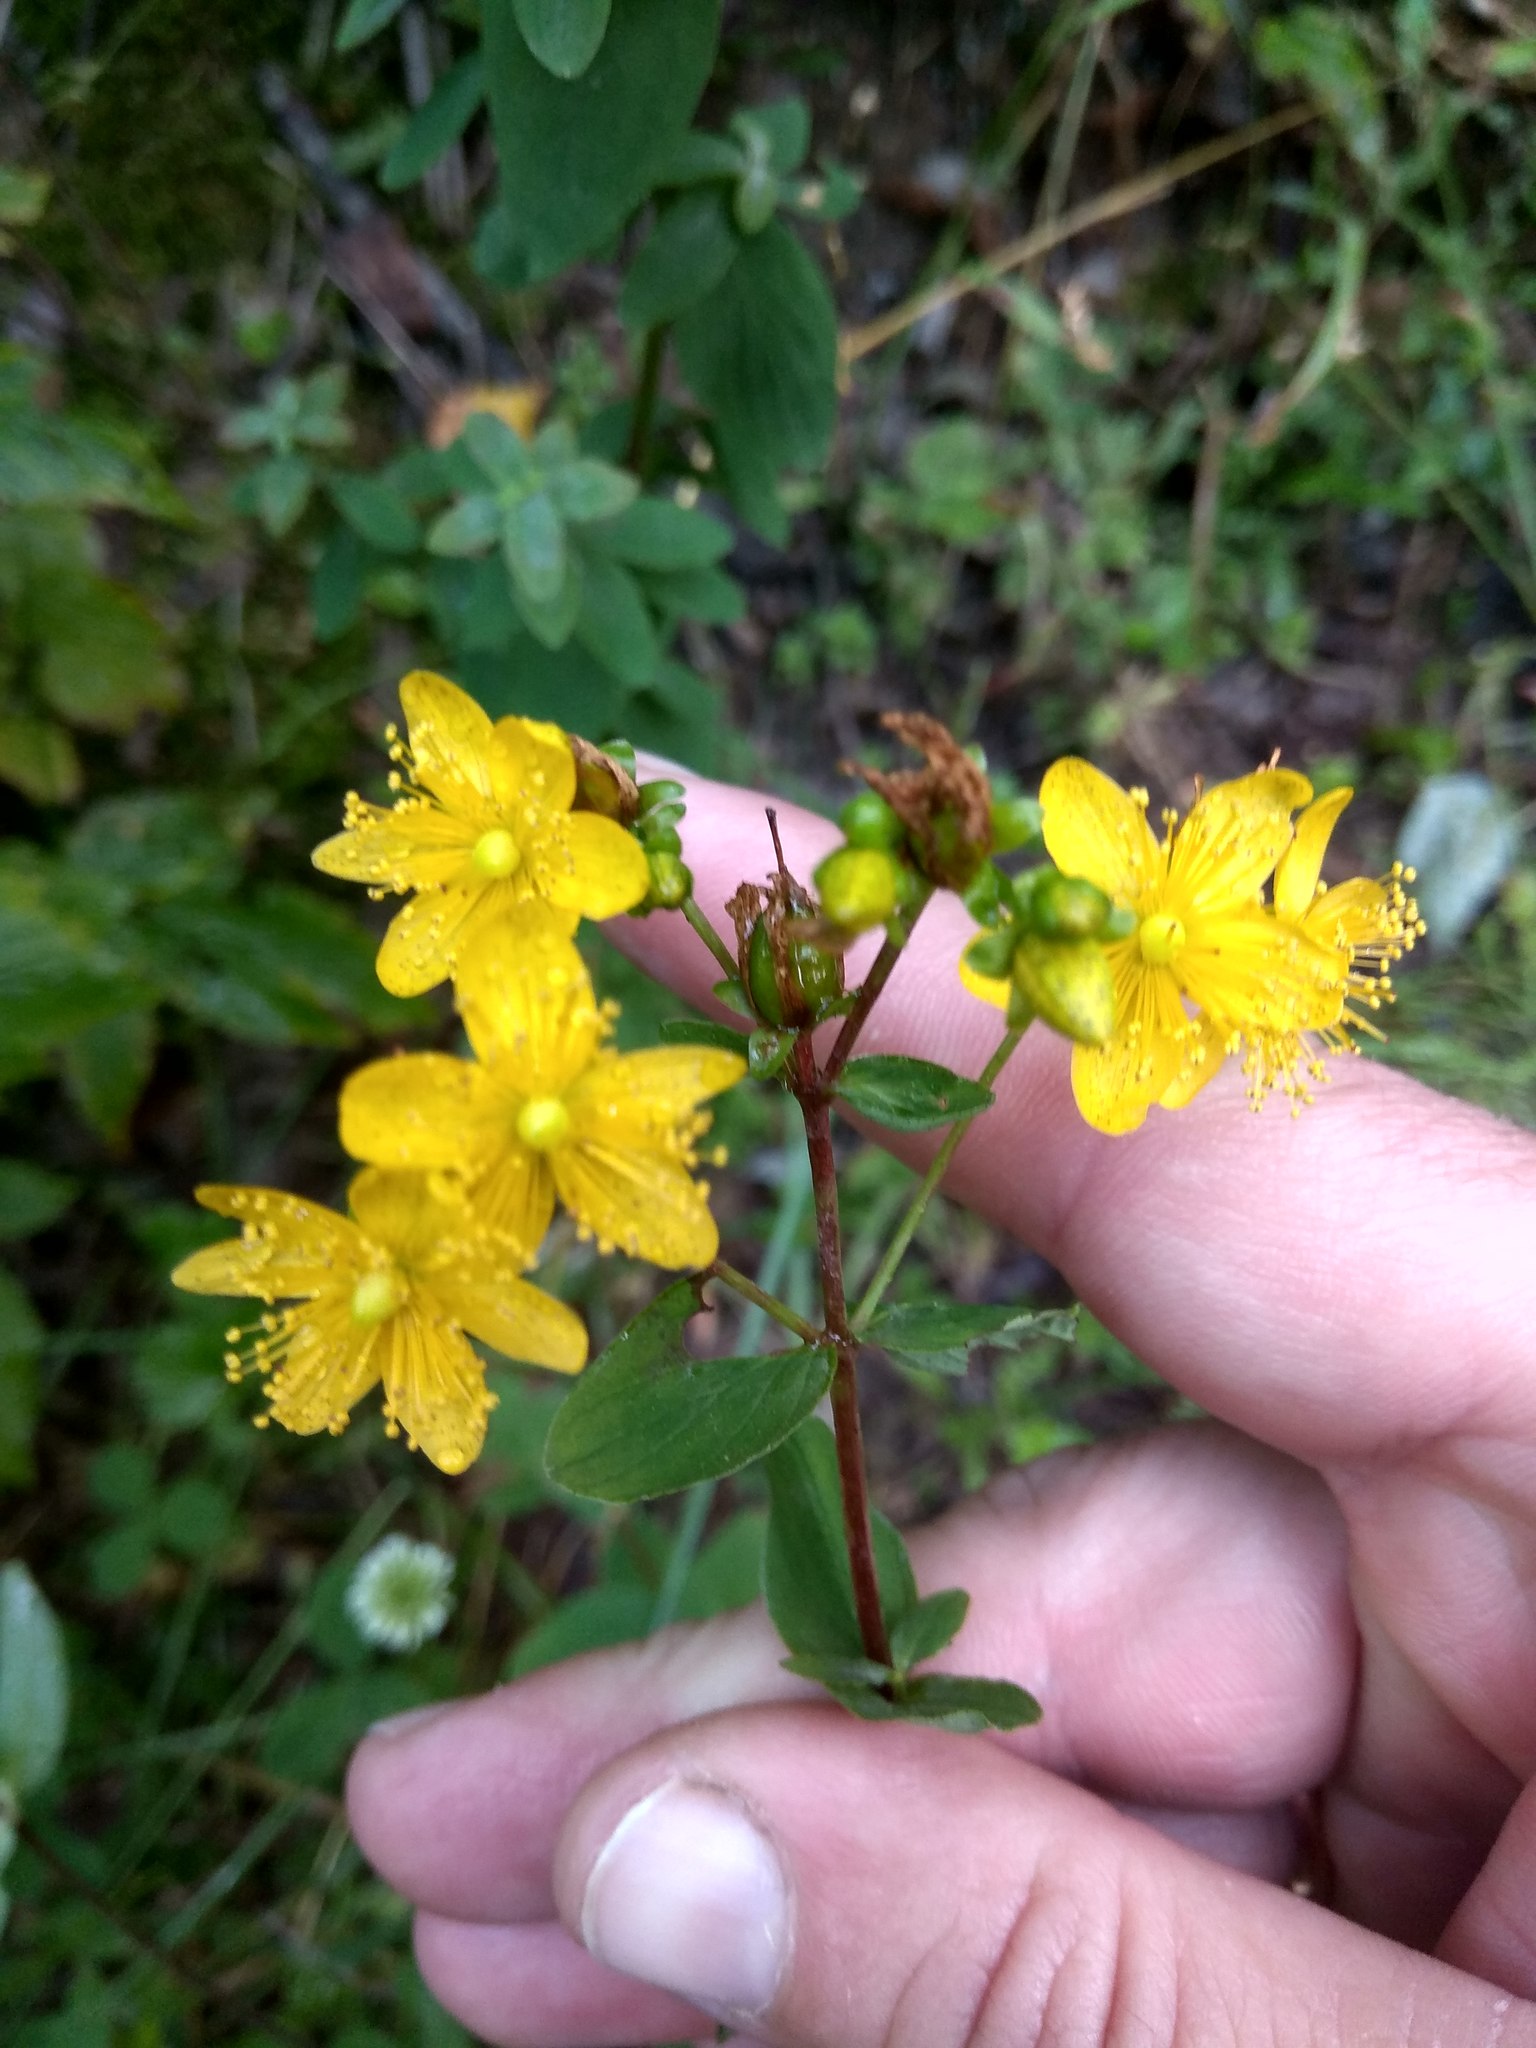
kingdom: Plantae
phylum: Tracheophyta
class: Magnoliopsida
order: Malpighiales
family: Hypericaceae
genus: Hypericum
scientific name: Hypericum maculatum
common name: Imperforate st. john's-wort
